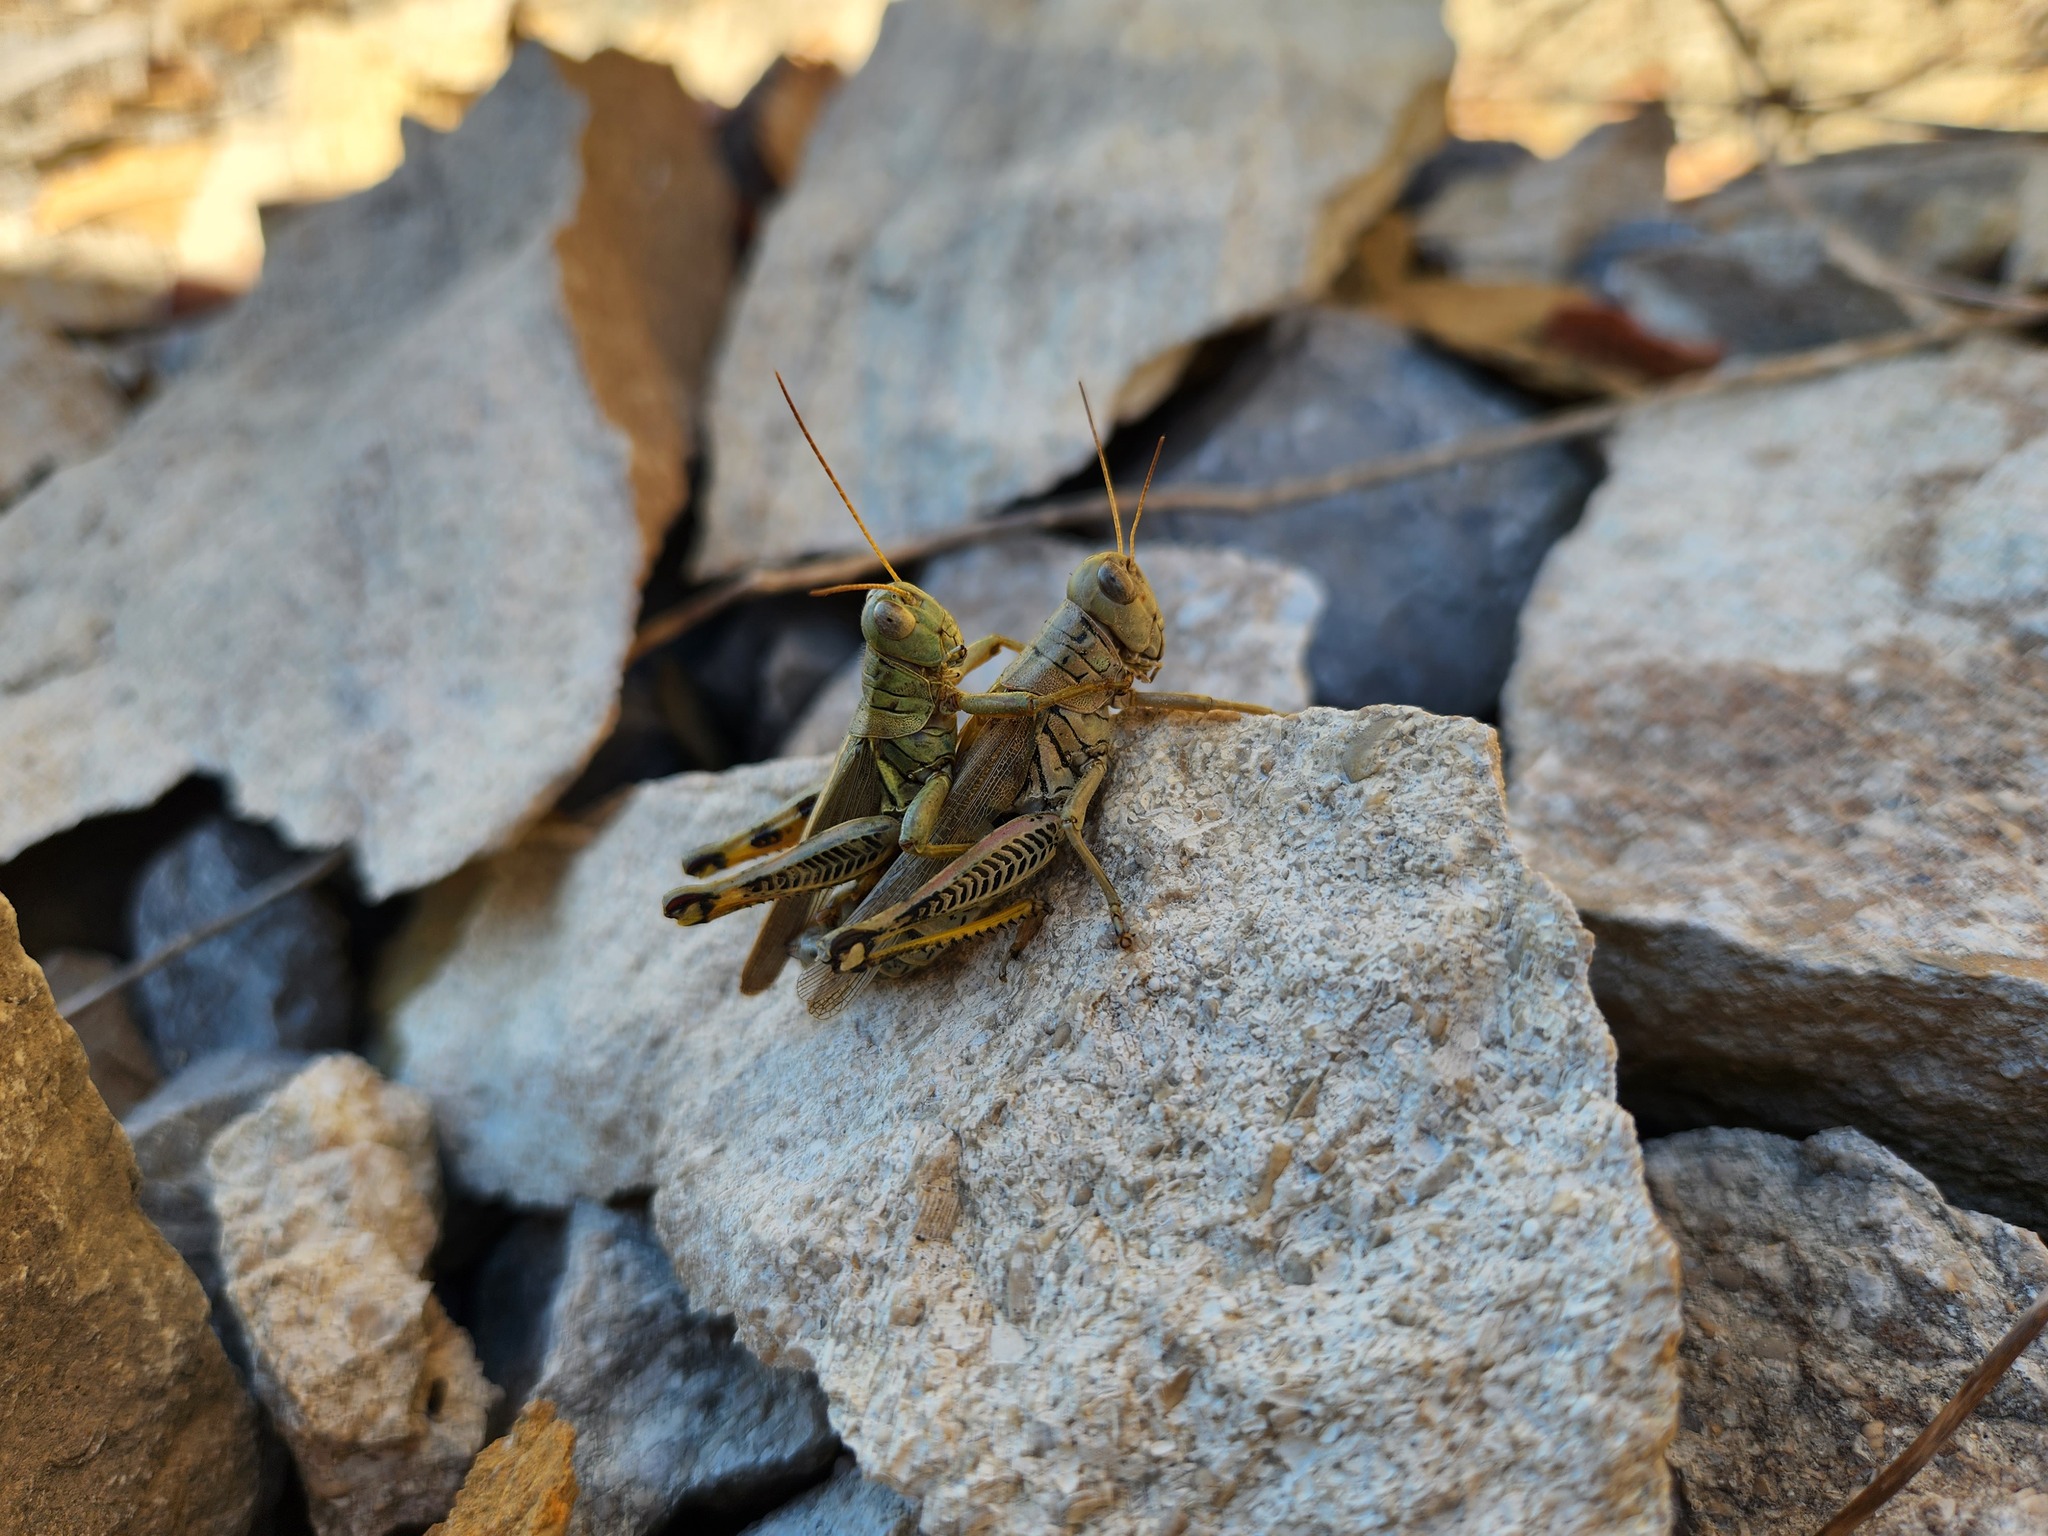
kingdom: Animalia
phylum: Arthropoda
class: Insecta
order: Orthoptera
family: Acrididae
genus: Melanoplus
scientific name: Melanoplus differentialis
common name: Differential grasshopper
